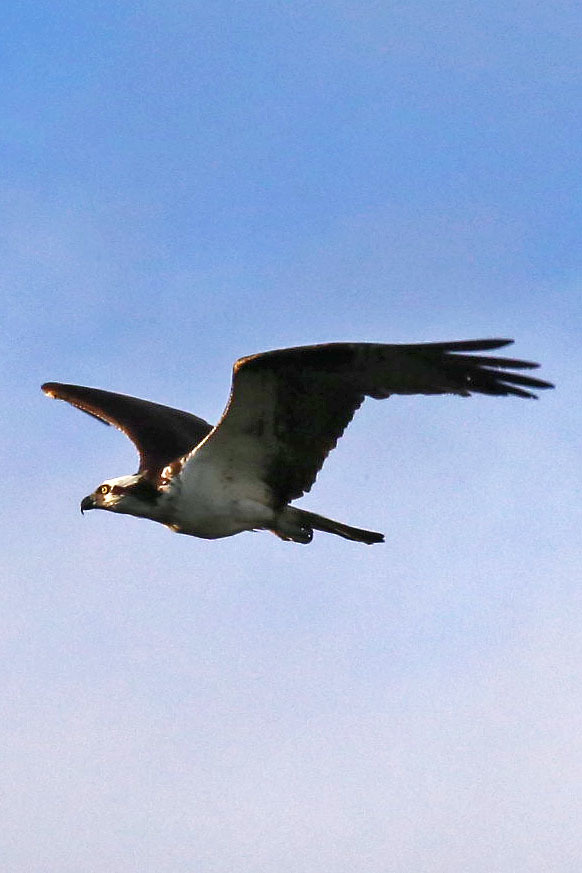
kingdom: Animalia
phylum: Chordata
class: Aves
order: Accipitriformes
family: Pandionidae
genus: Pandion
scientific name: Pandion haliaetus
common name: Osprey
